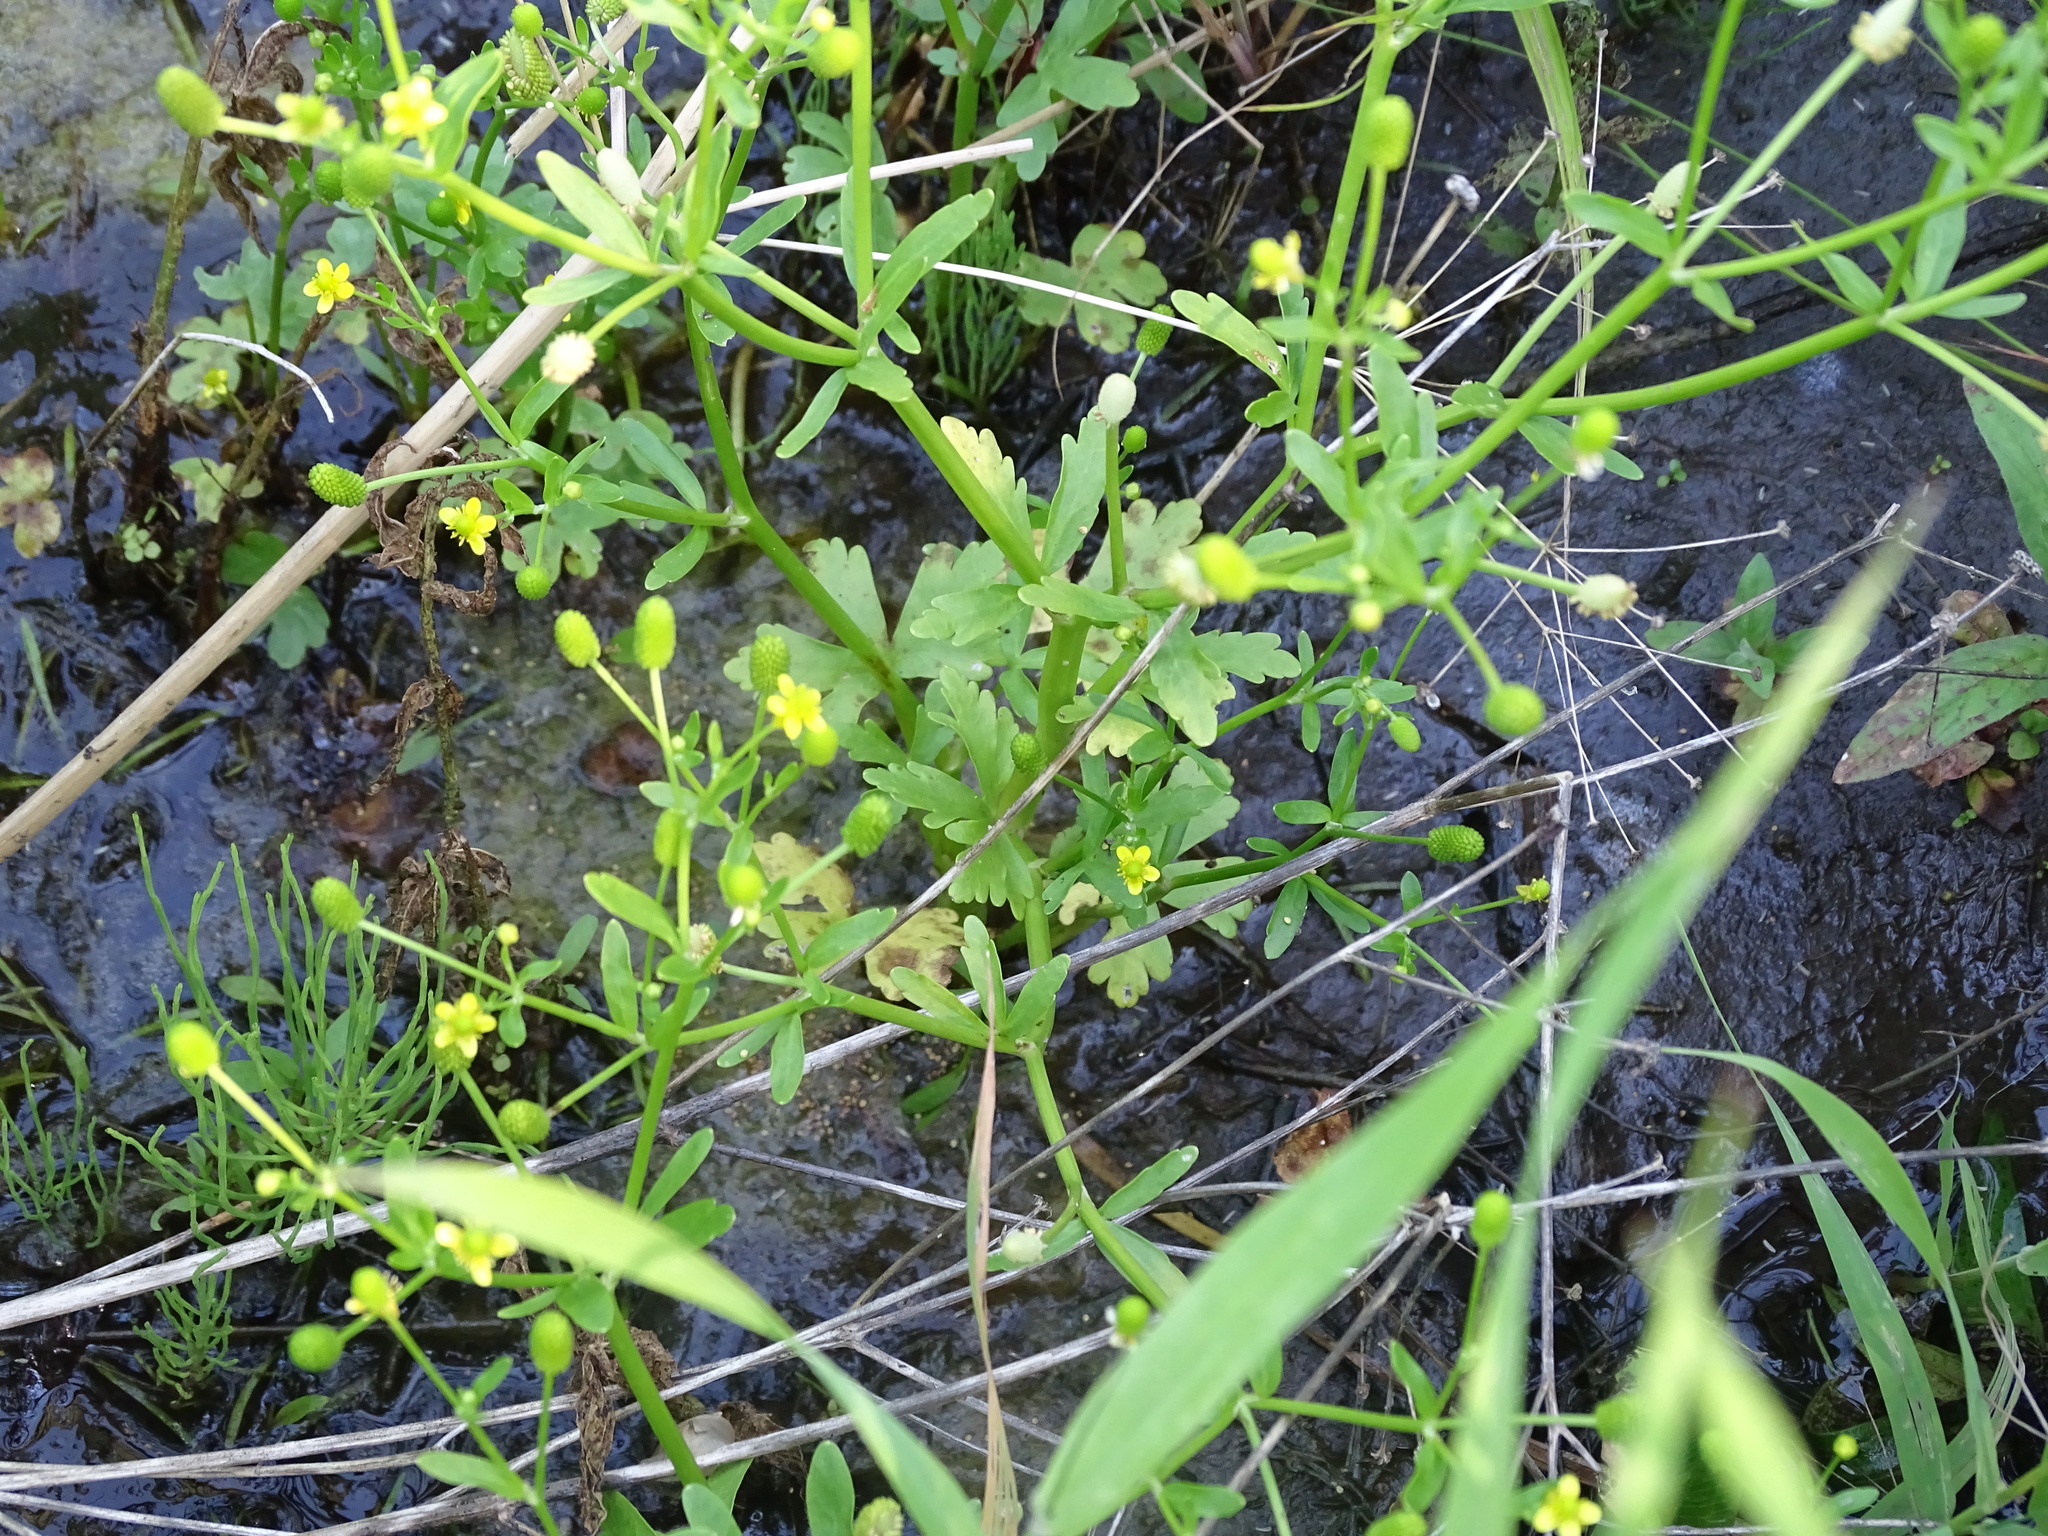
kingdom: Plantae
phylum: Tracheophyta
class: Magnoliopsida
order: Ranunculales
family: Ranunculaceae
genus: Ranunculus
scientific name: Ranunculus sceleratus
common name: Celery-leaved buttercup
